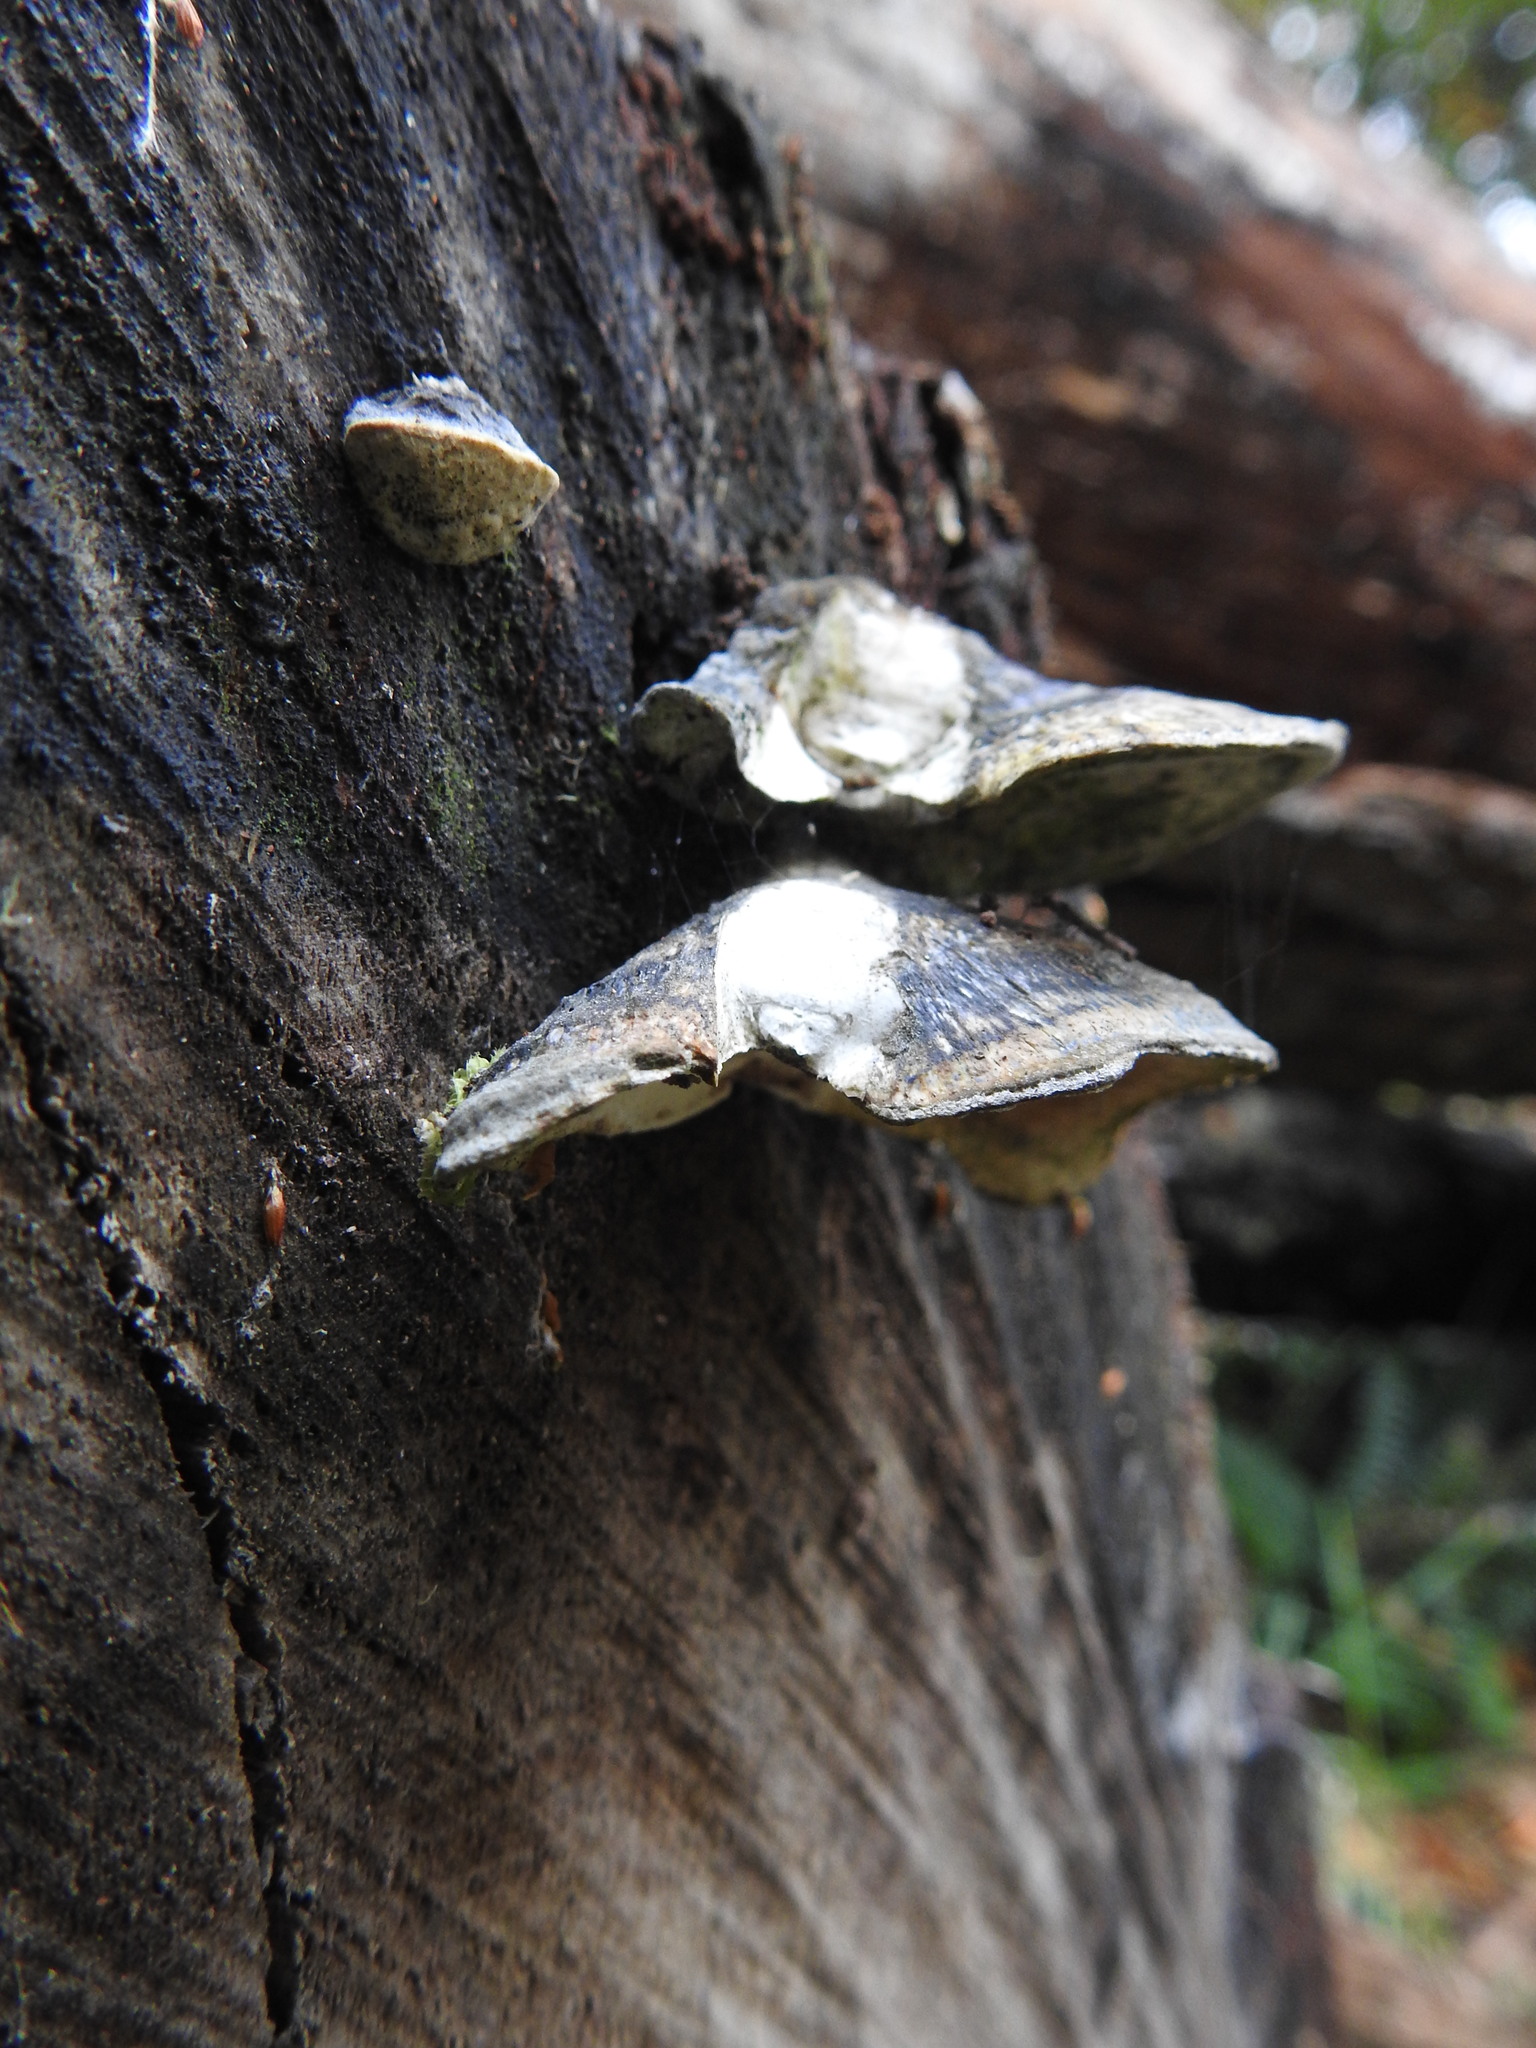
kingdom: Fungi
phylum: Basidiomycota
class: Agaricomycetes
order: Polyporales
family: Polyporaceae
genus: Trametes
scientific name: Trametes versicolor
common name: Turkeytail
